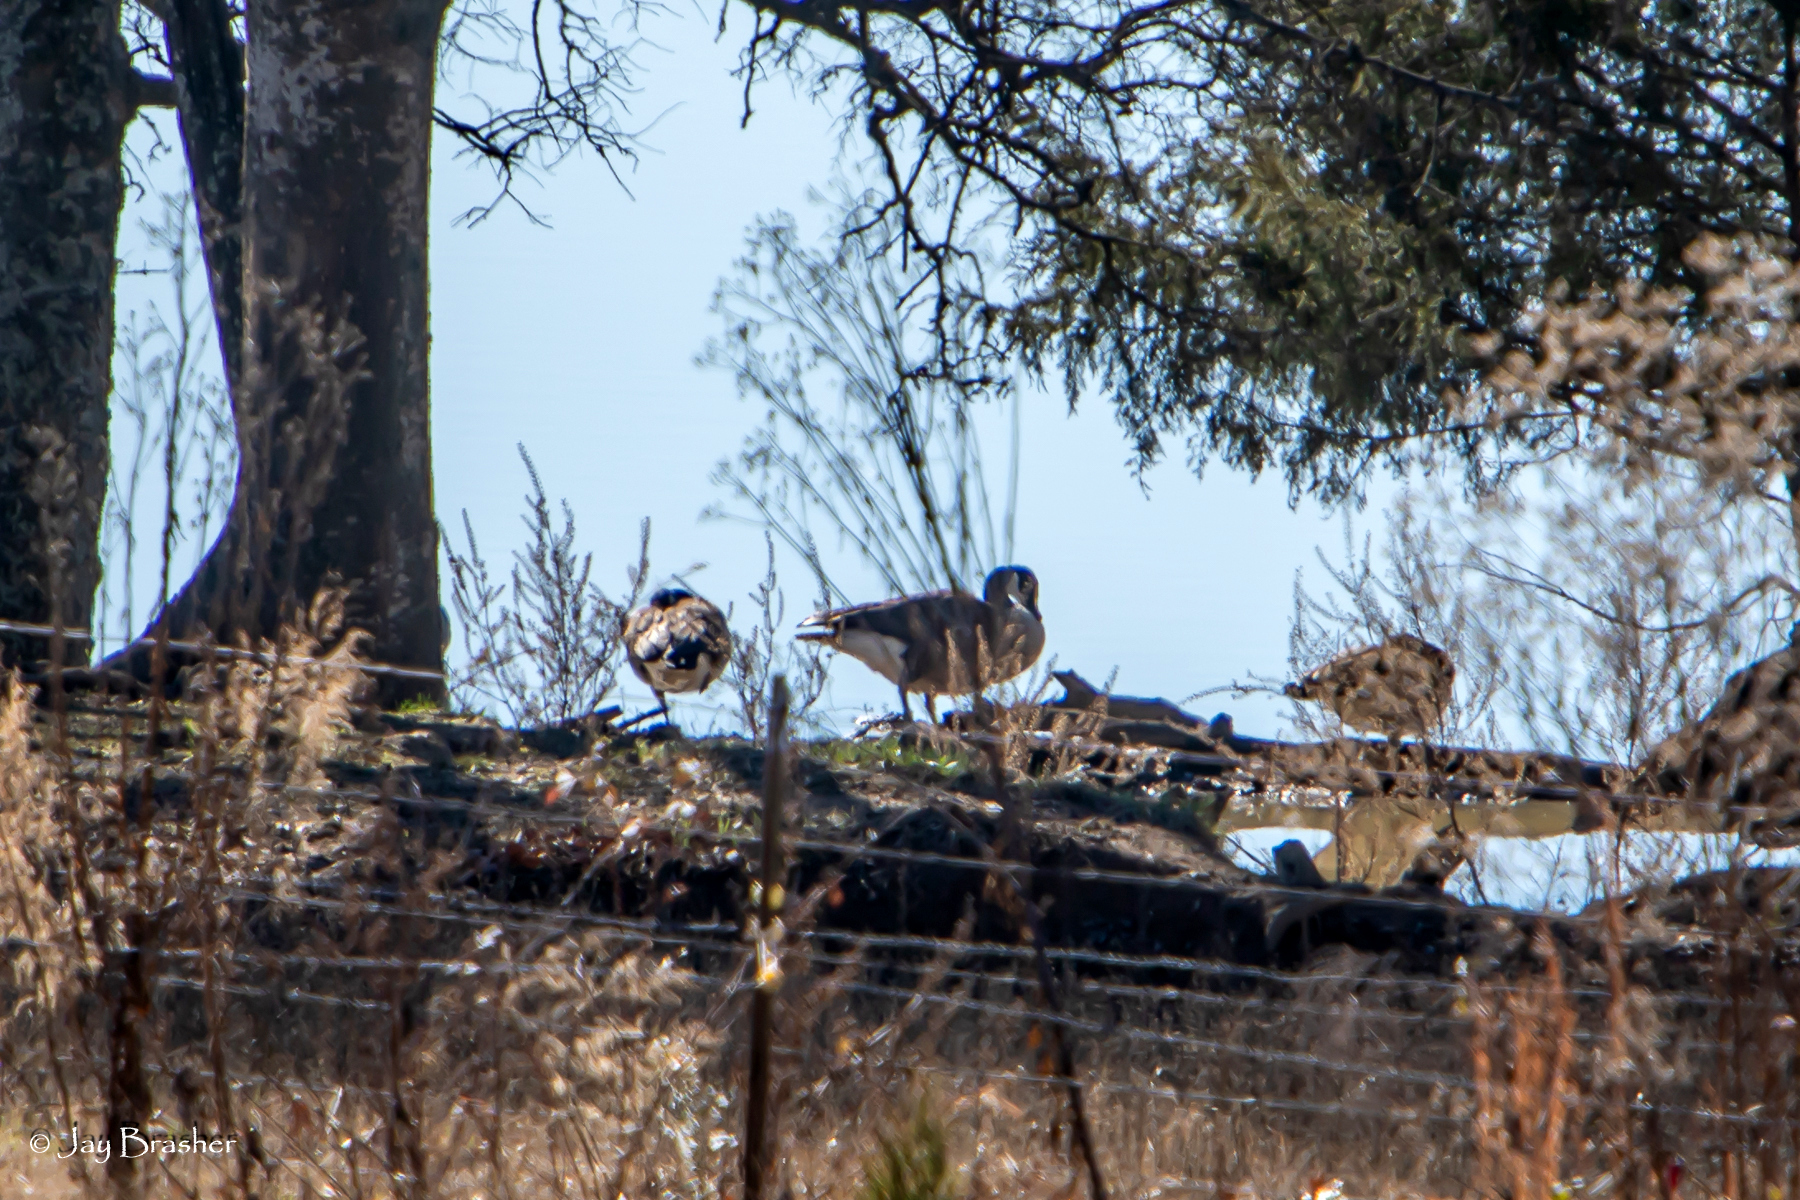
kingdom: Animalia
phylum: Chordata
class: Aves
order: Anseriformes
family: Anatidae
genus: Branta
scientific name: Branta canadensis
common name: Canada goose
